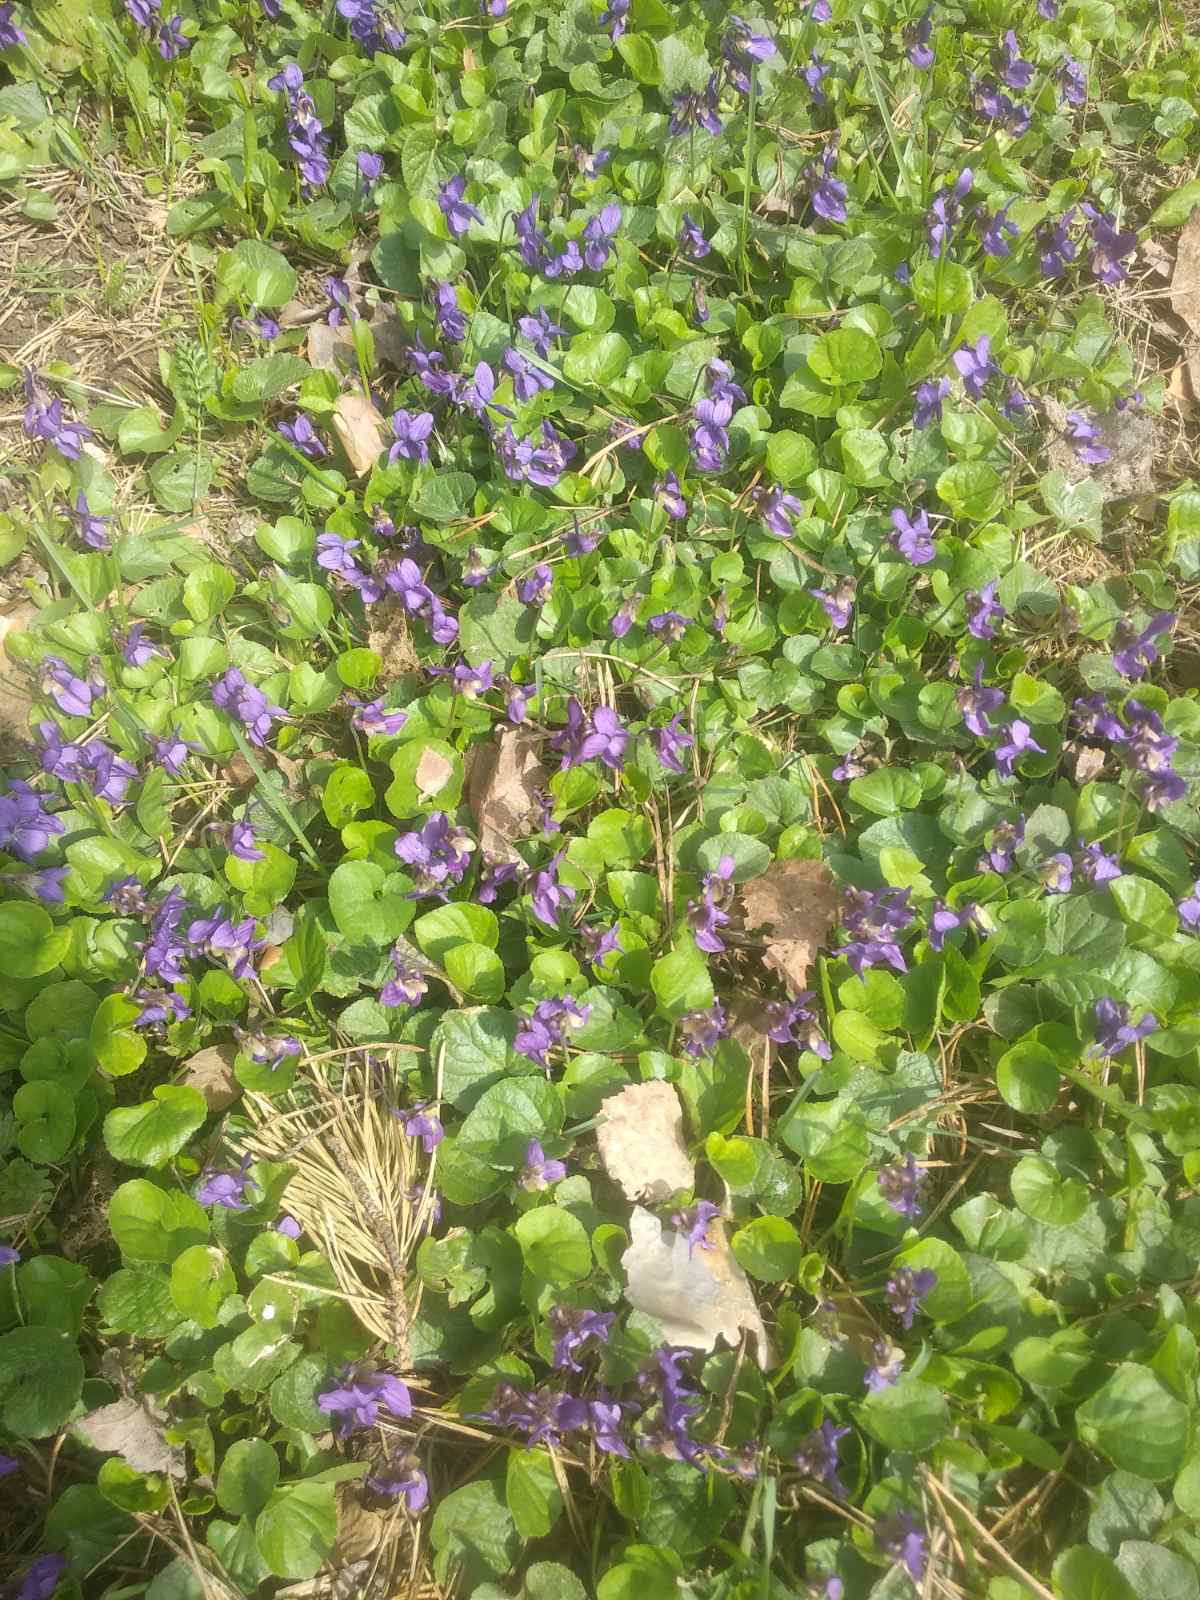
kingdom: Plantae
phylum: Tracheophyta
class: Magnoliopsida
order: Malpighiales
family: Violaceae
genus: Viola
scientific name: Viola odorata
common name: Sweet violet
